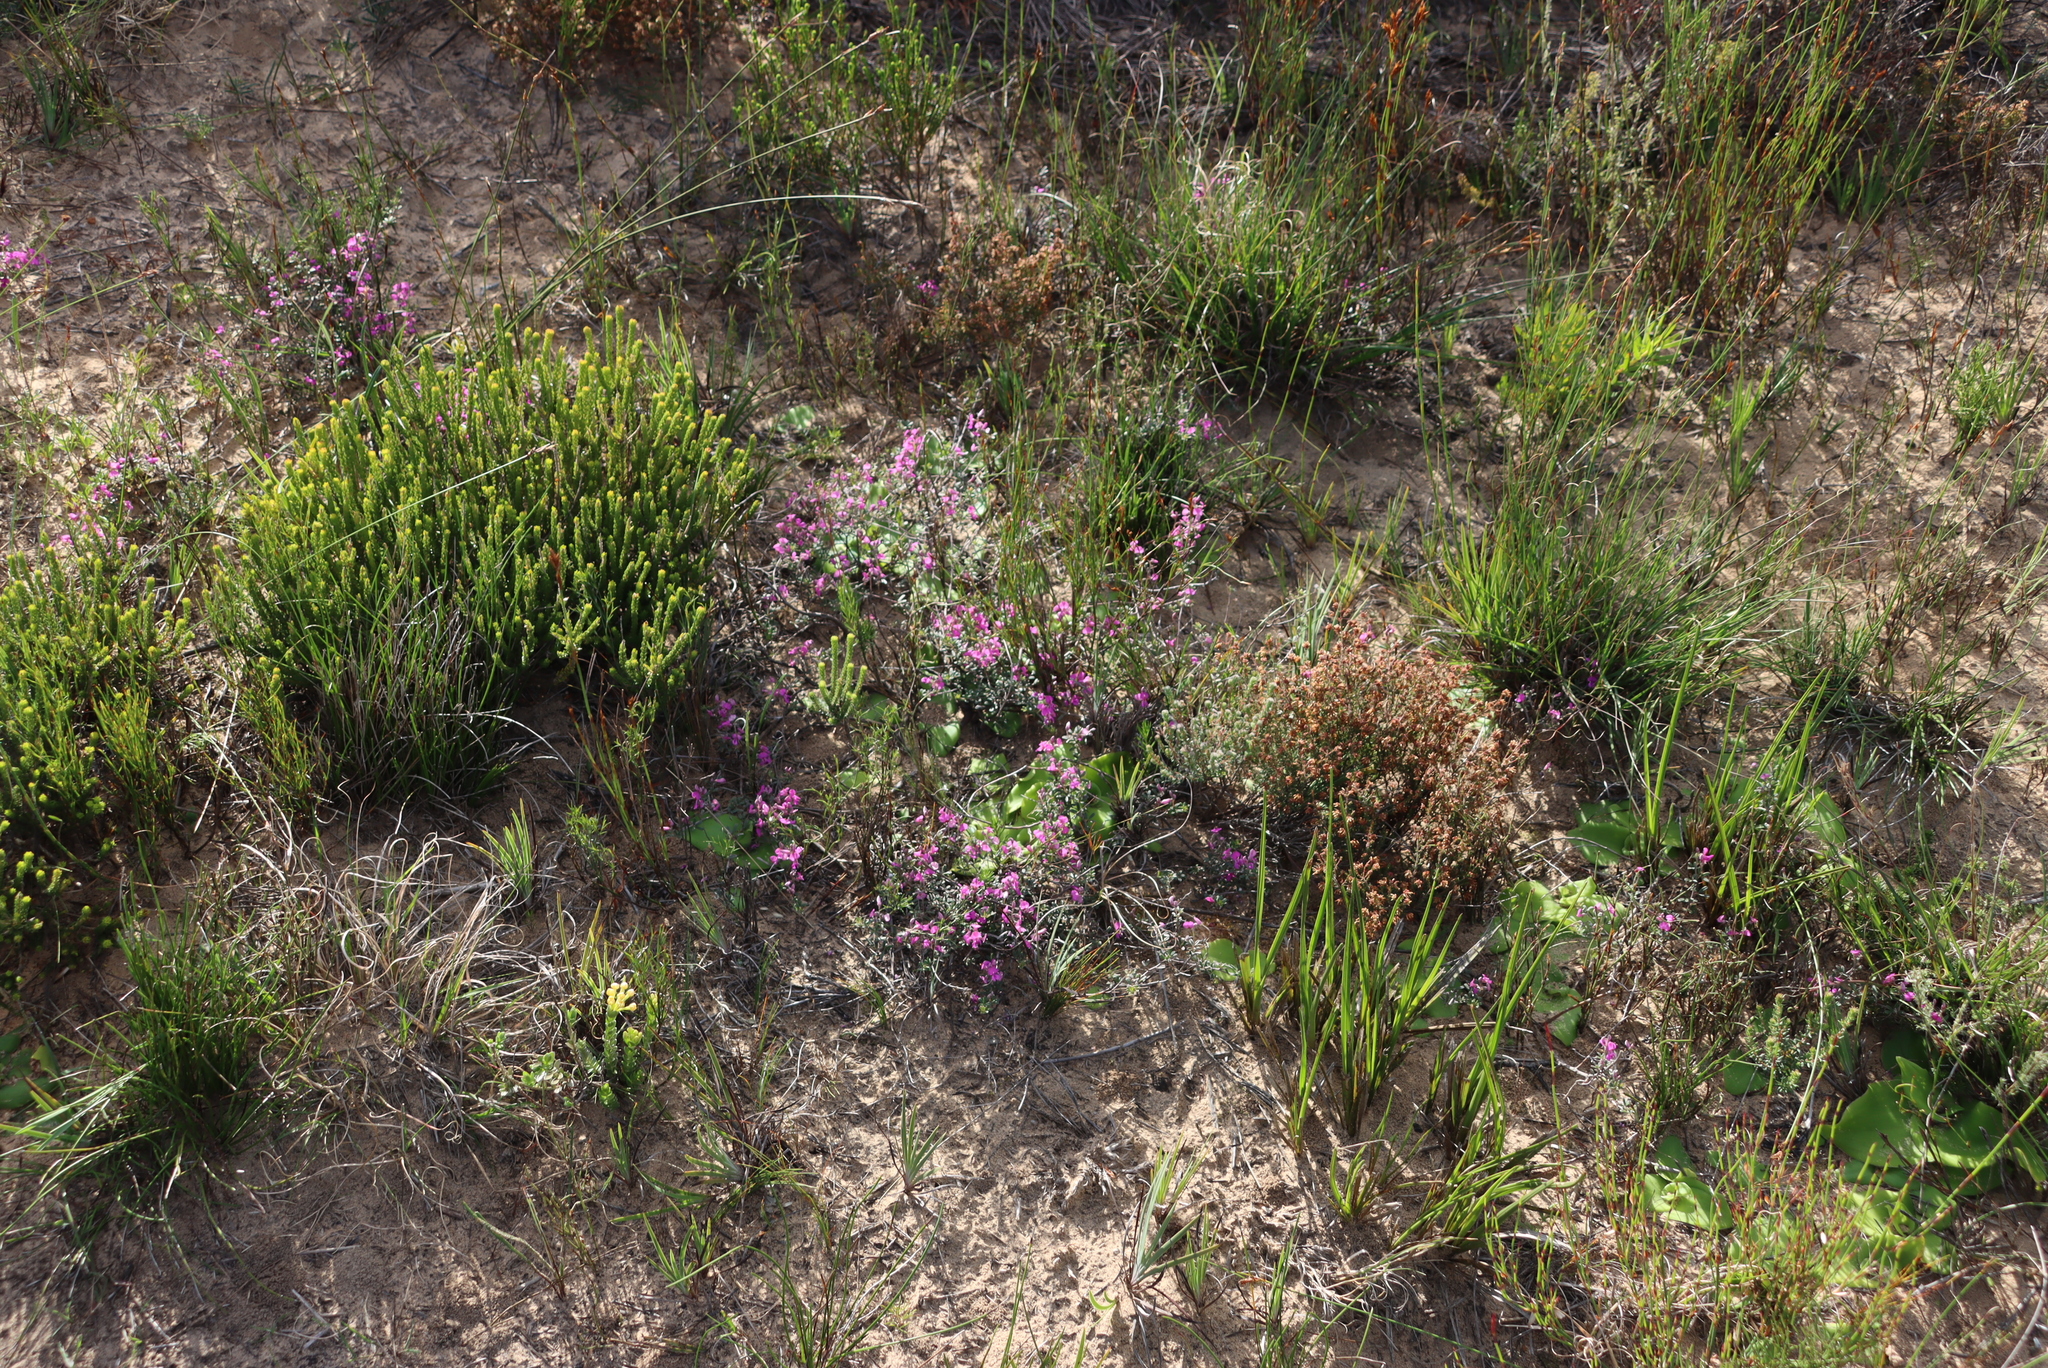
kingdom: Plantae
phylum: Tracheophyta
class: Magnoliopsida
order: Fabales
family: Fabaceae
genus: Indigofera
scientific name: Indigofera
